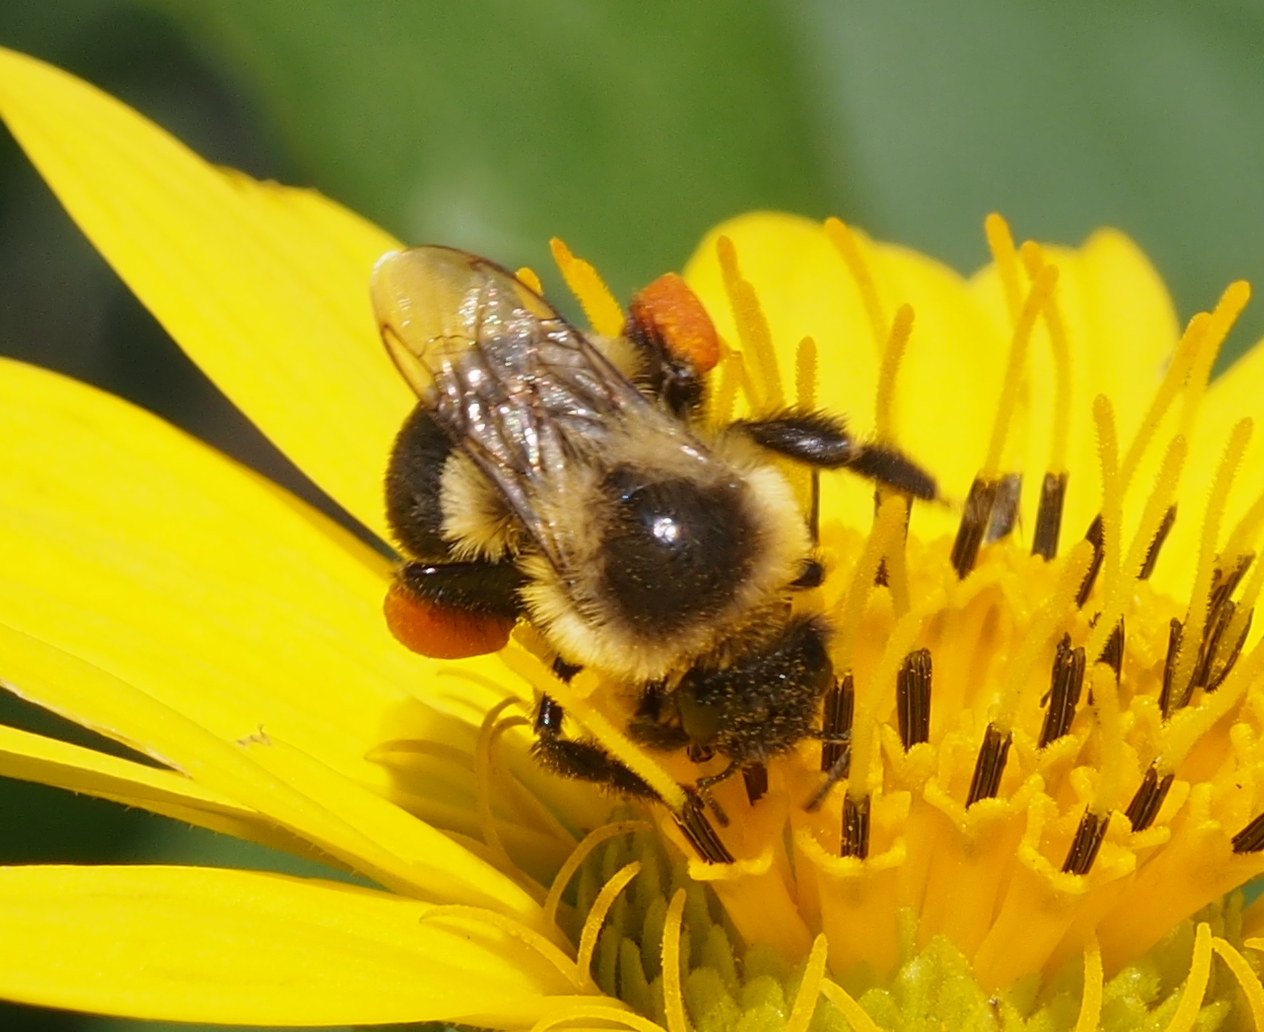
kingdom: Animalia
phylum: Arthropoda
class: Insecta
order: Hymenoptera
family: Apidae
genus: Bombus
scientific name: Bombus impatiens
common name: Common eastern bumble bee
